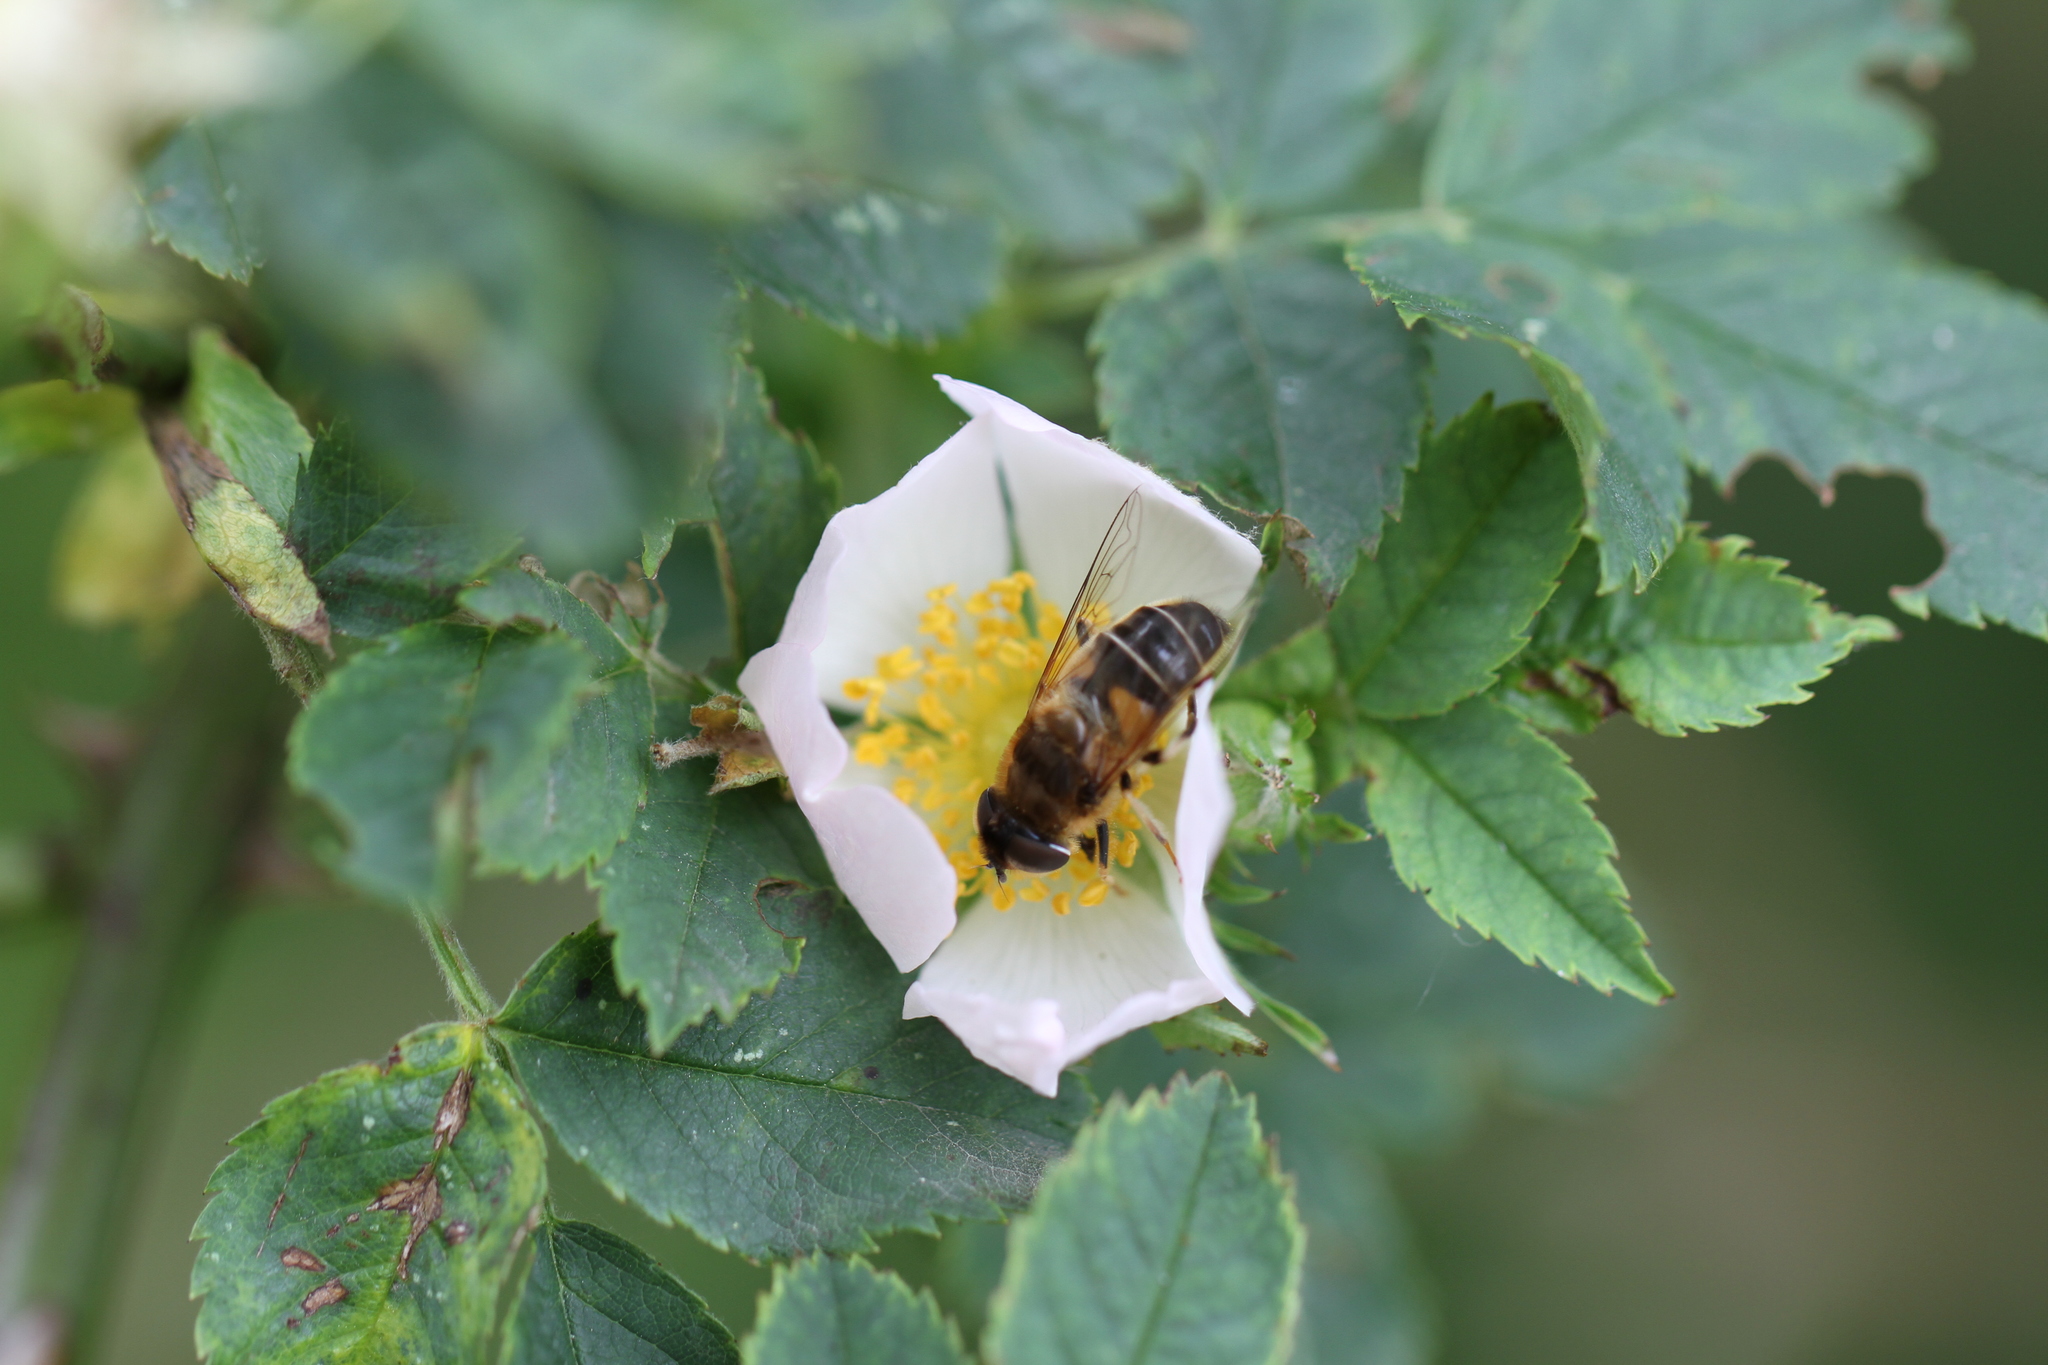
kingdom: Animalia
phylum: Arthropoda
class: Insecta
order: Diptera
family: Syrphidae
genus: Eristalis
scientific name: Eristalis pertinax
